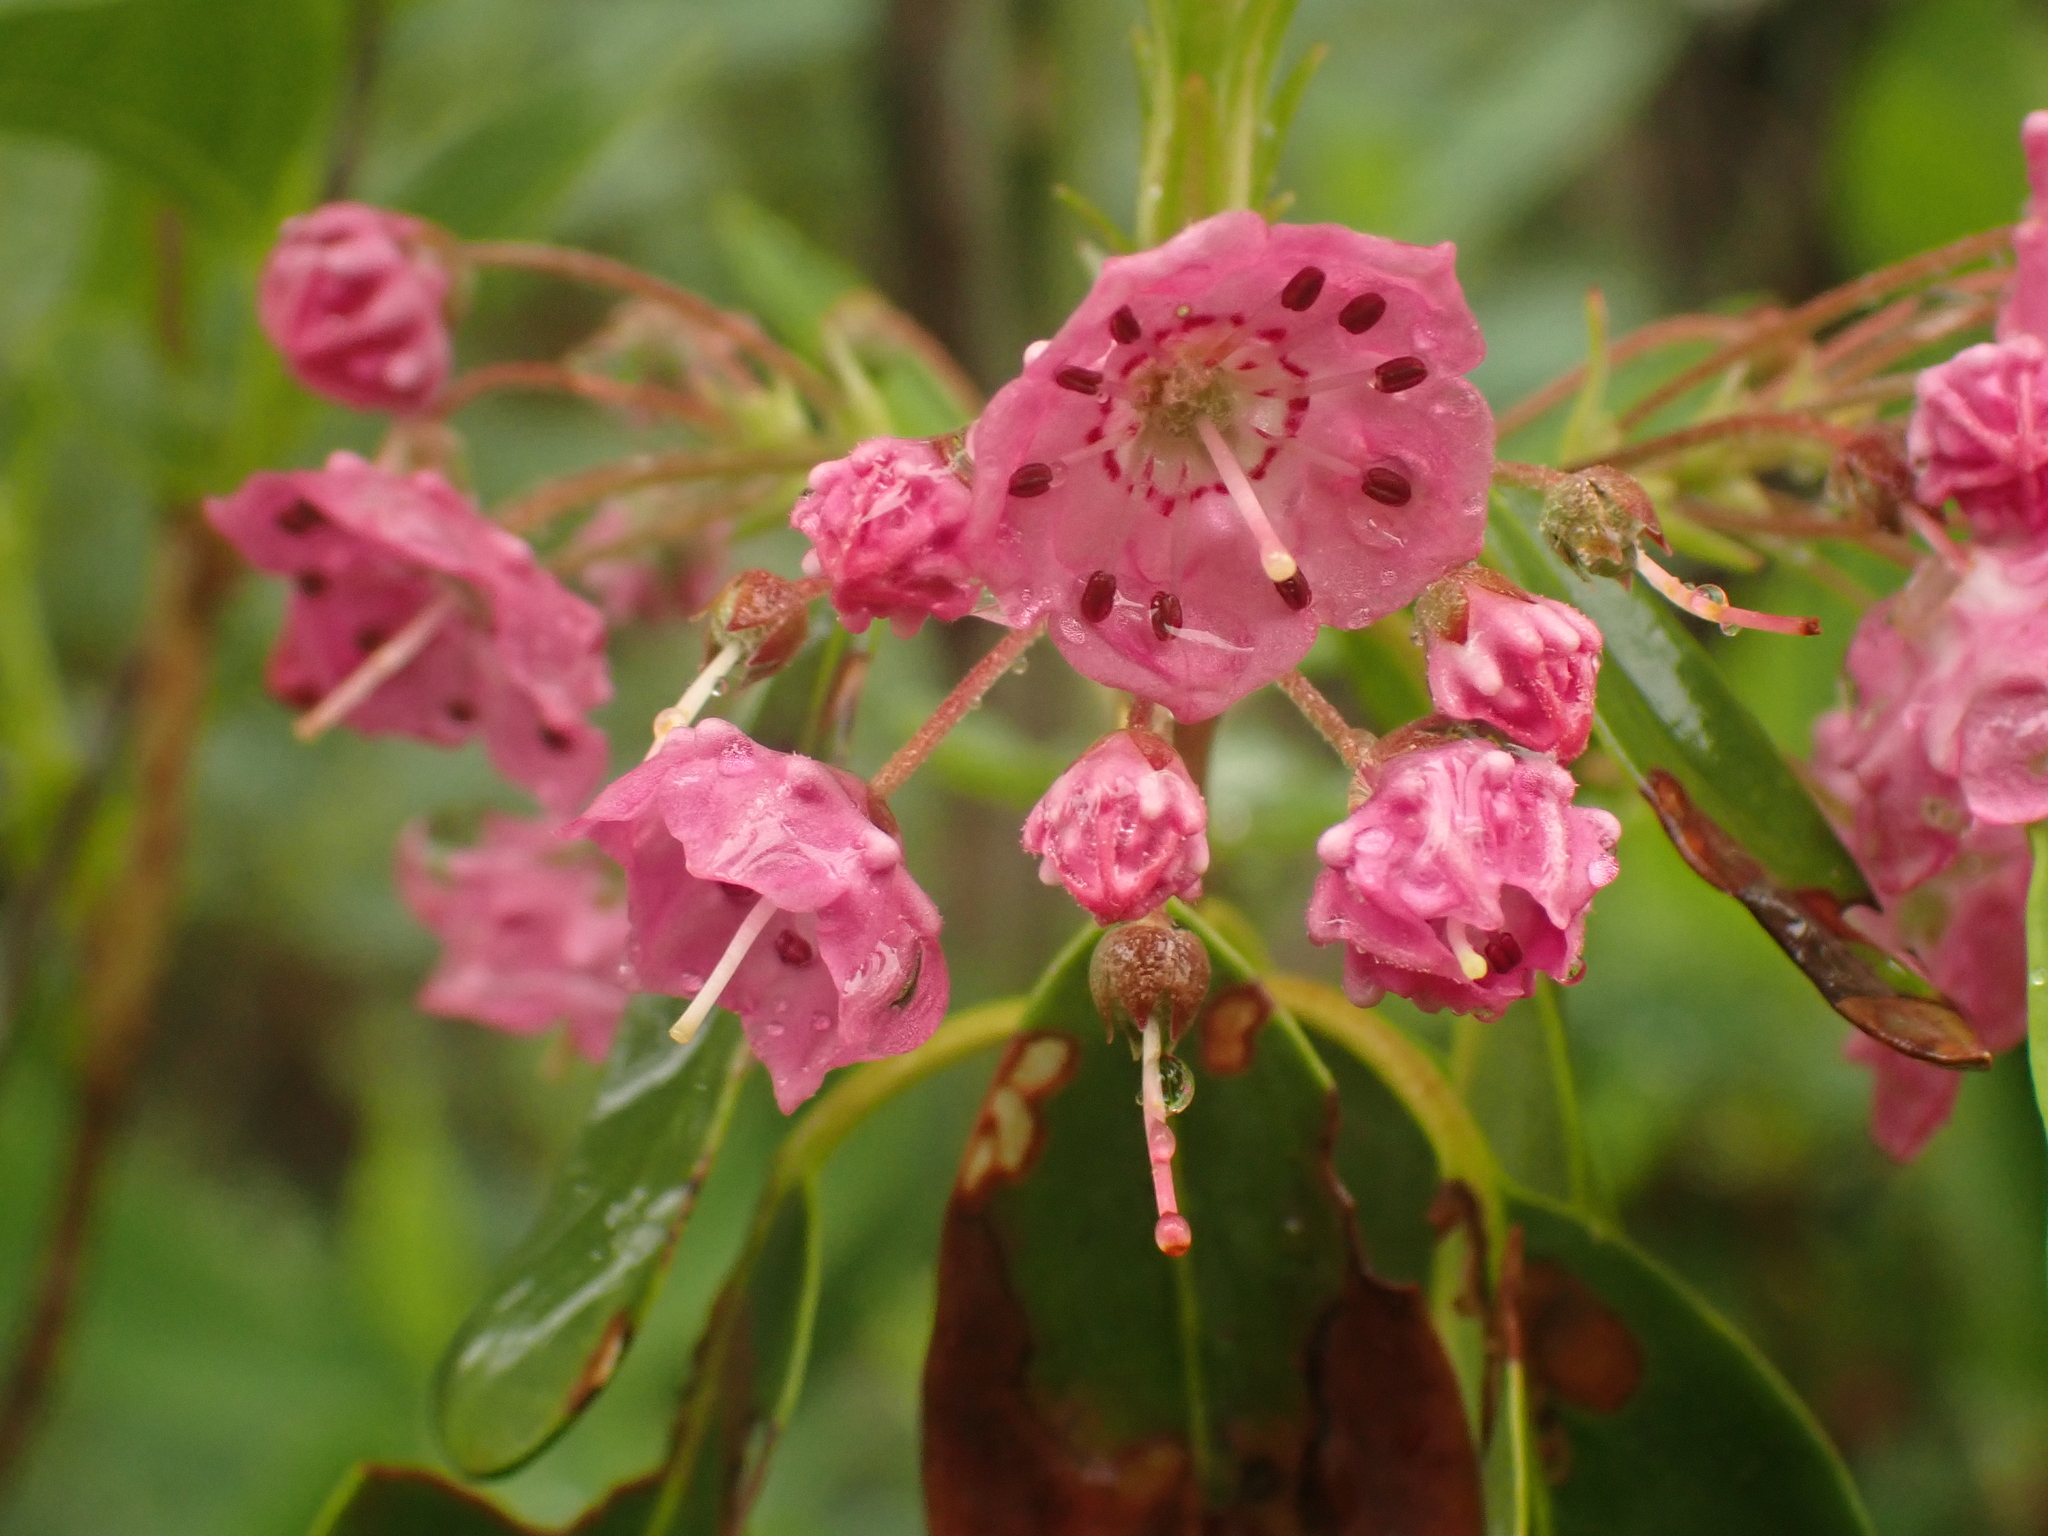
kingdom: Plantae
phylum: Tracheophyta
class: Magnoliopsida
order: Ericales
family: Ericaceae
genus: Kalmia
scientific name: Kalmia angustifolia
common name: Sheep-laurel
